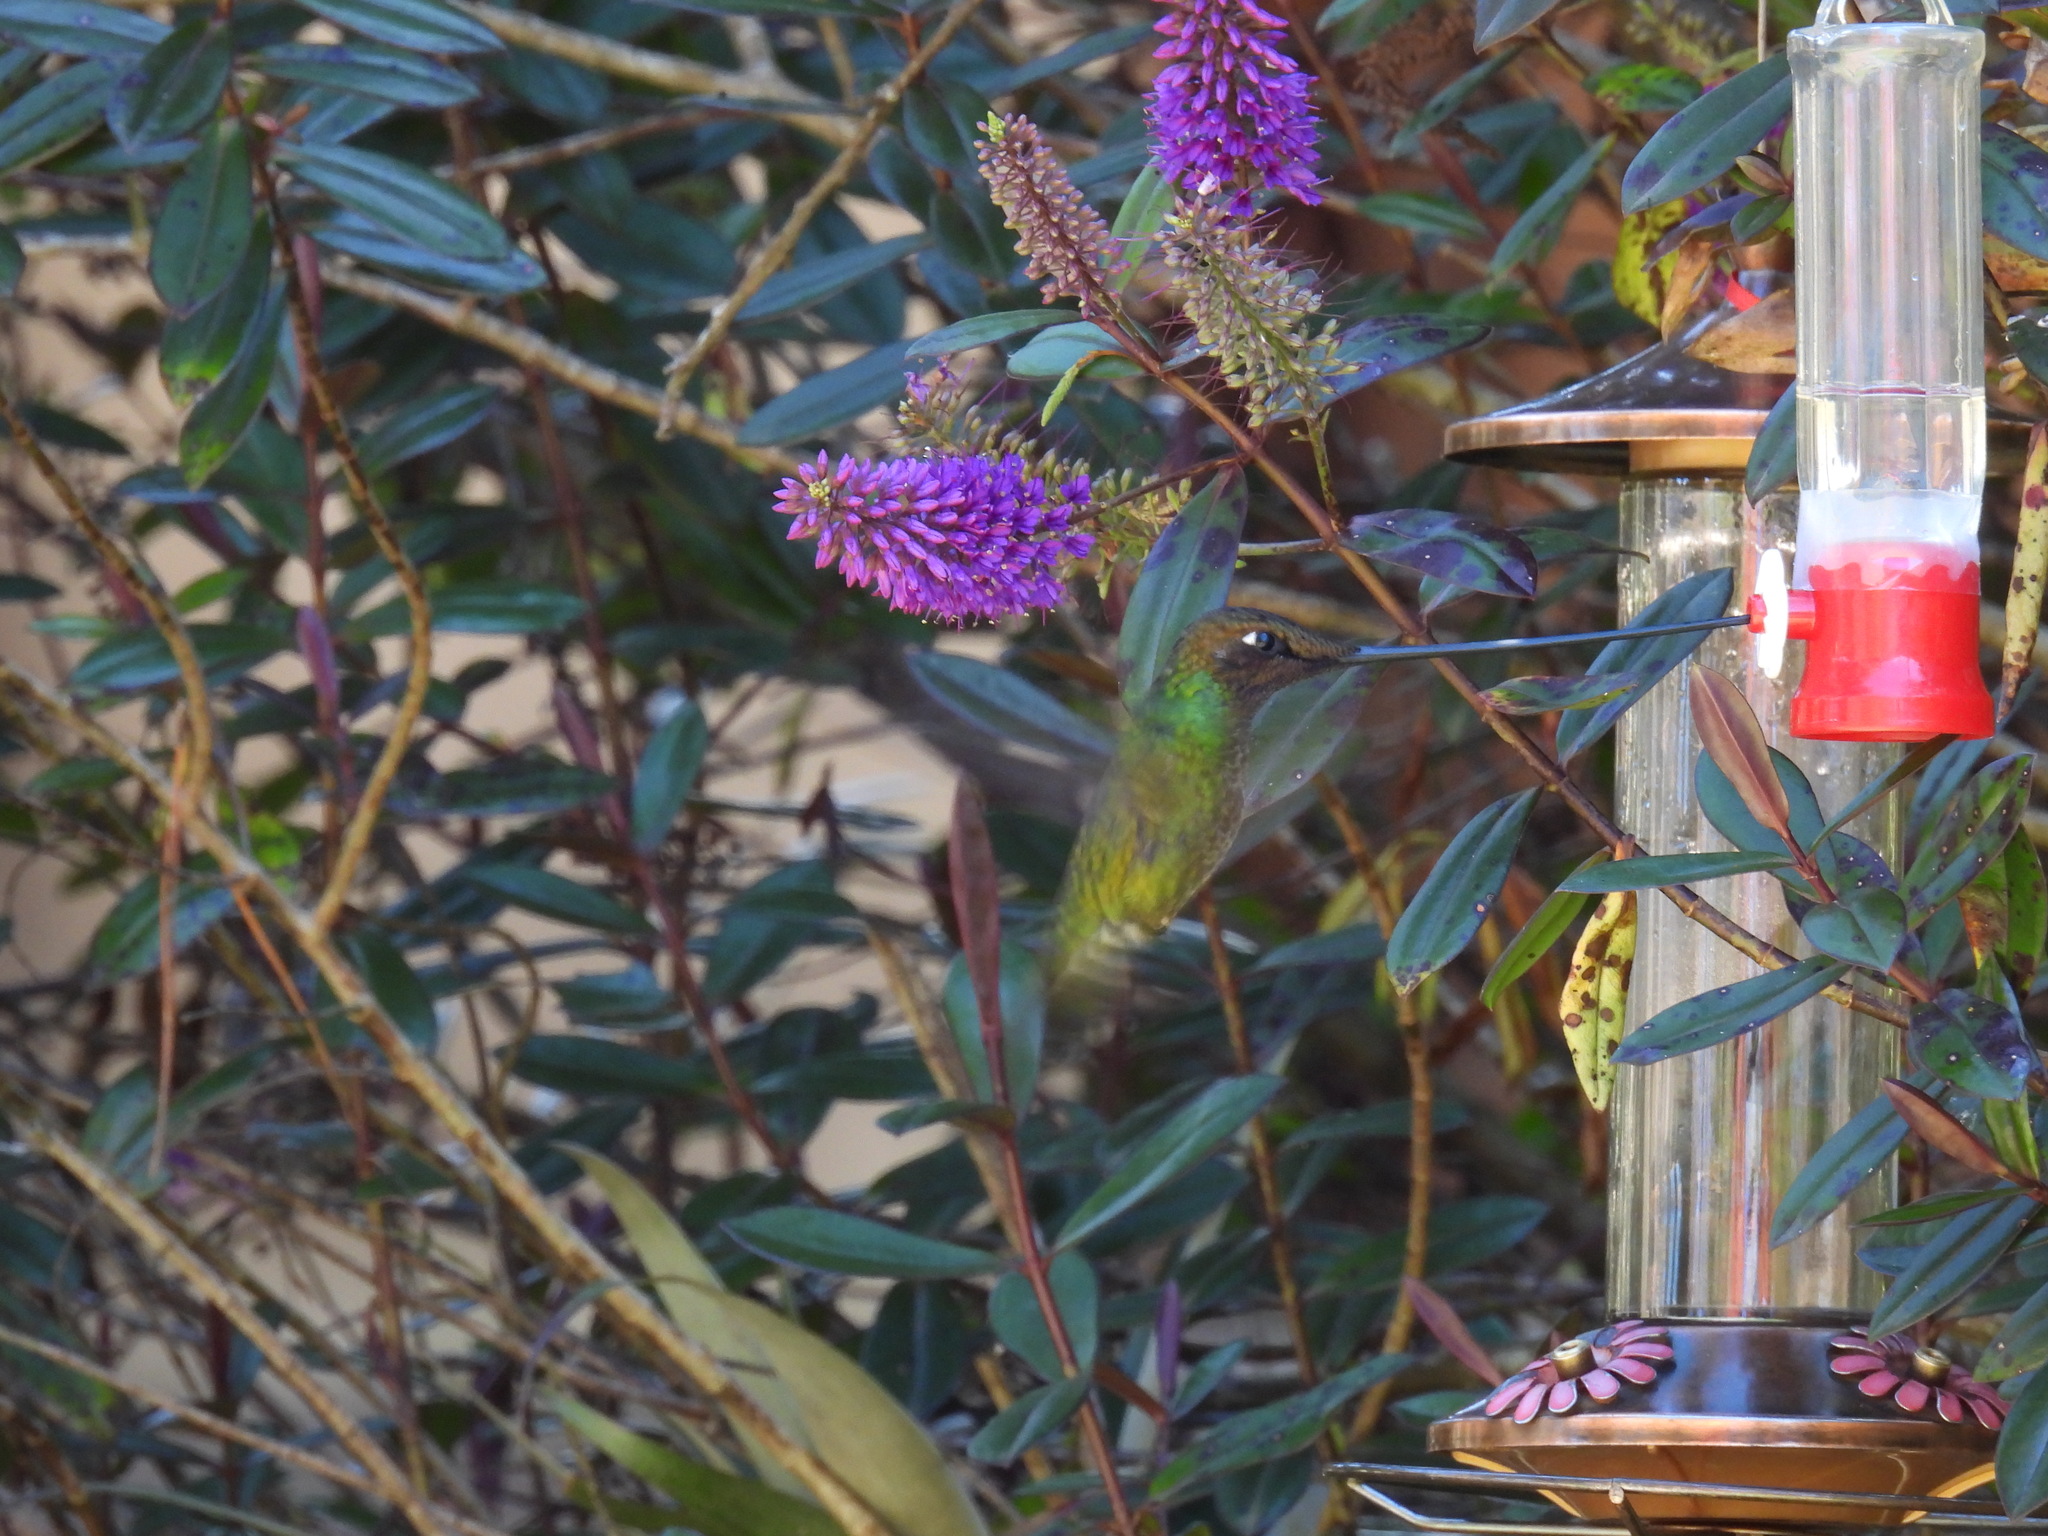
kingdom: Animalia
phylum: Chordata
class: Aves
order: Apodiformes
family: Trochilidae
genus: Ensifera
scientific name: Ensifera ensifera
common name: Sword-billed hummingbird
